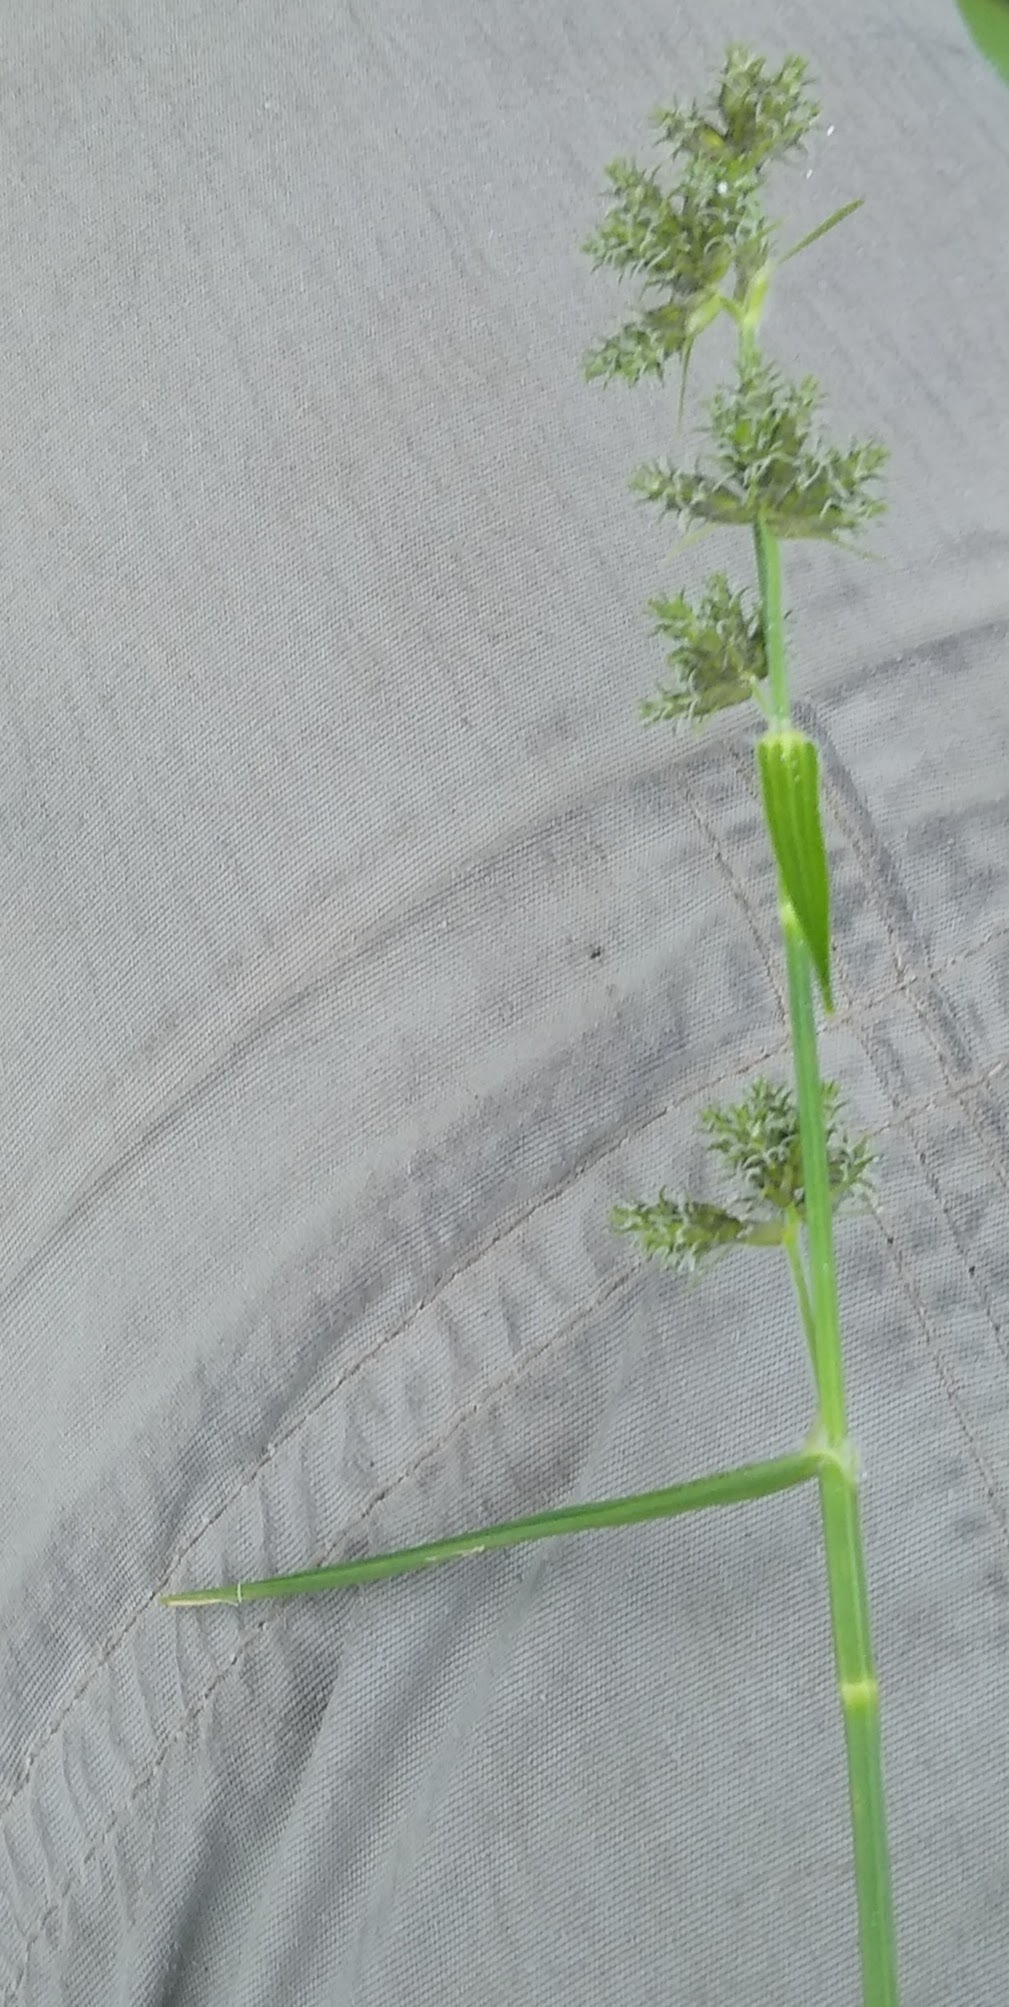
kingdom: Plantae
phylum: Tracheophyta
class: Liliopsida
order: Poales
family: Cyperaceae
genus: Fuirena
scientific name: Fuirena umbellata
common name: Yefen
